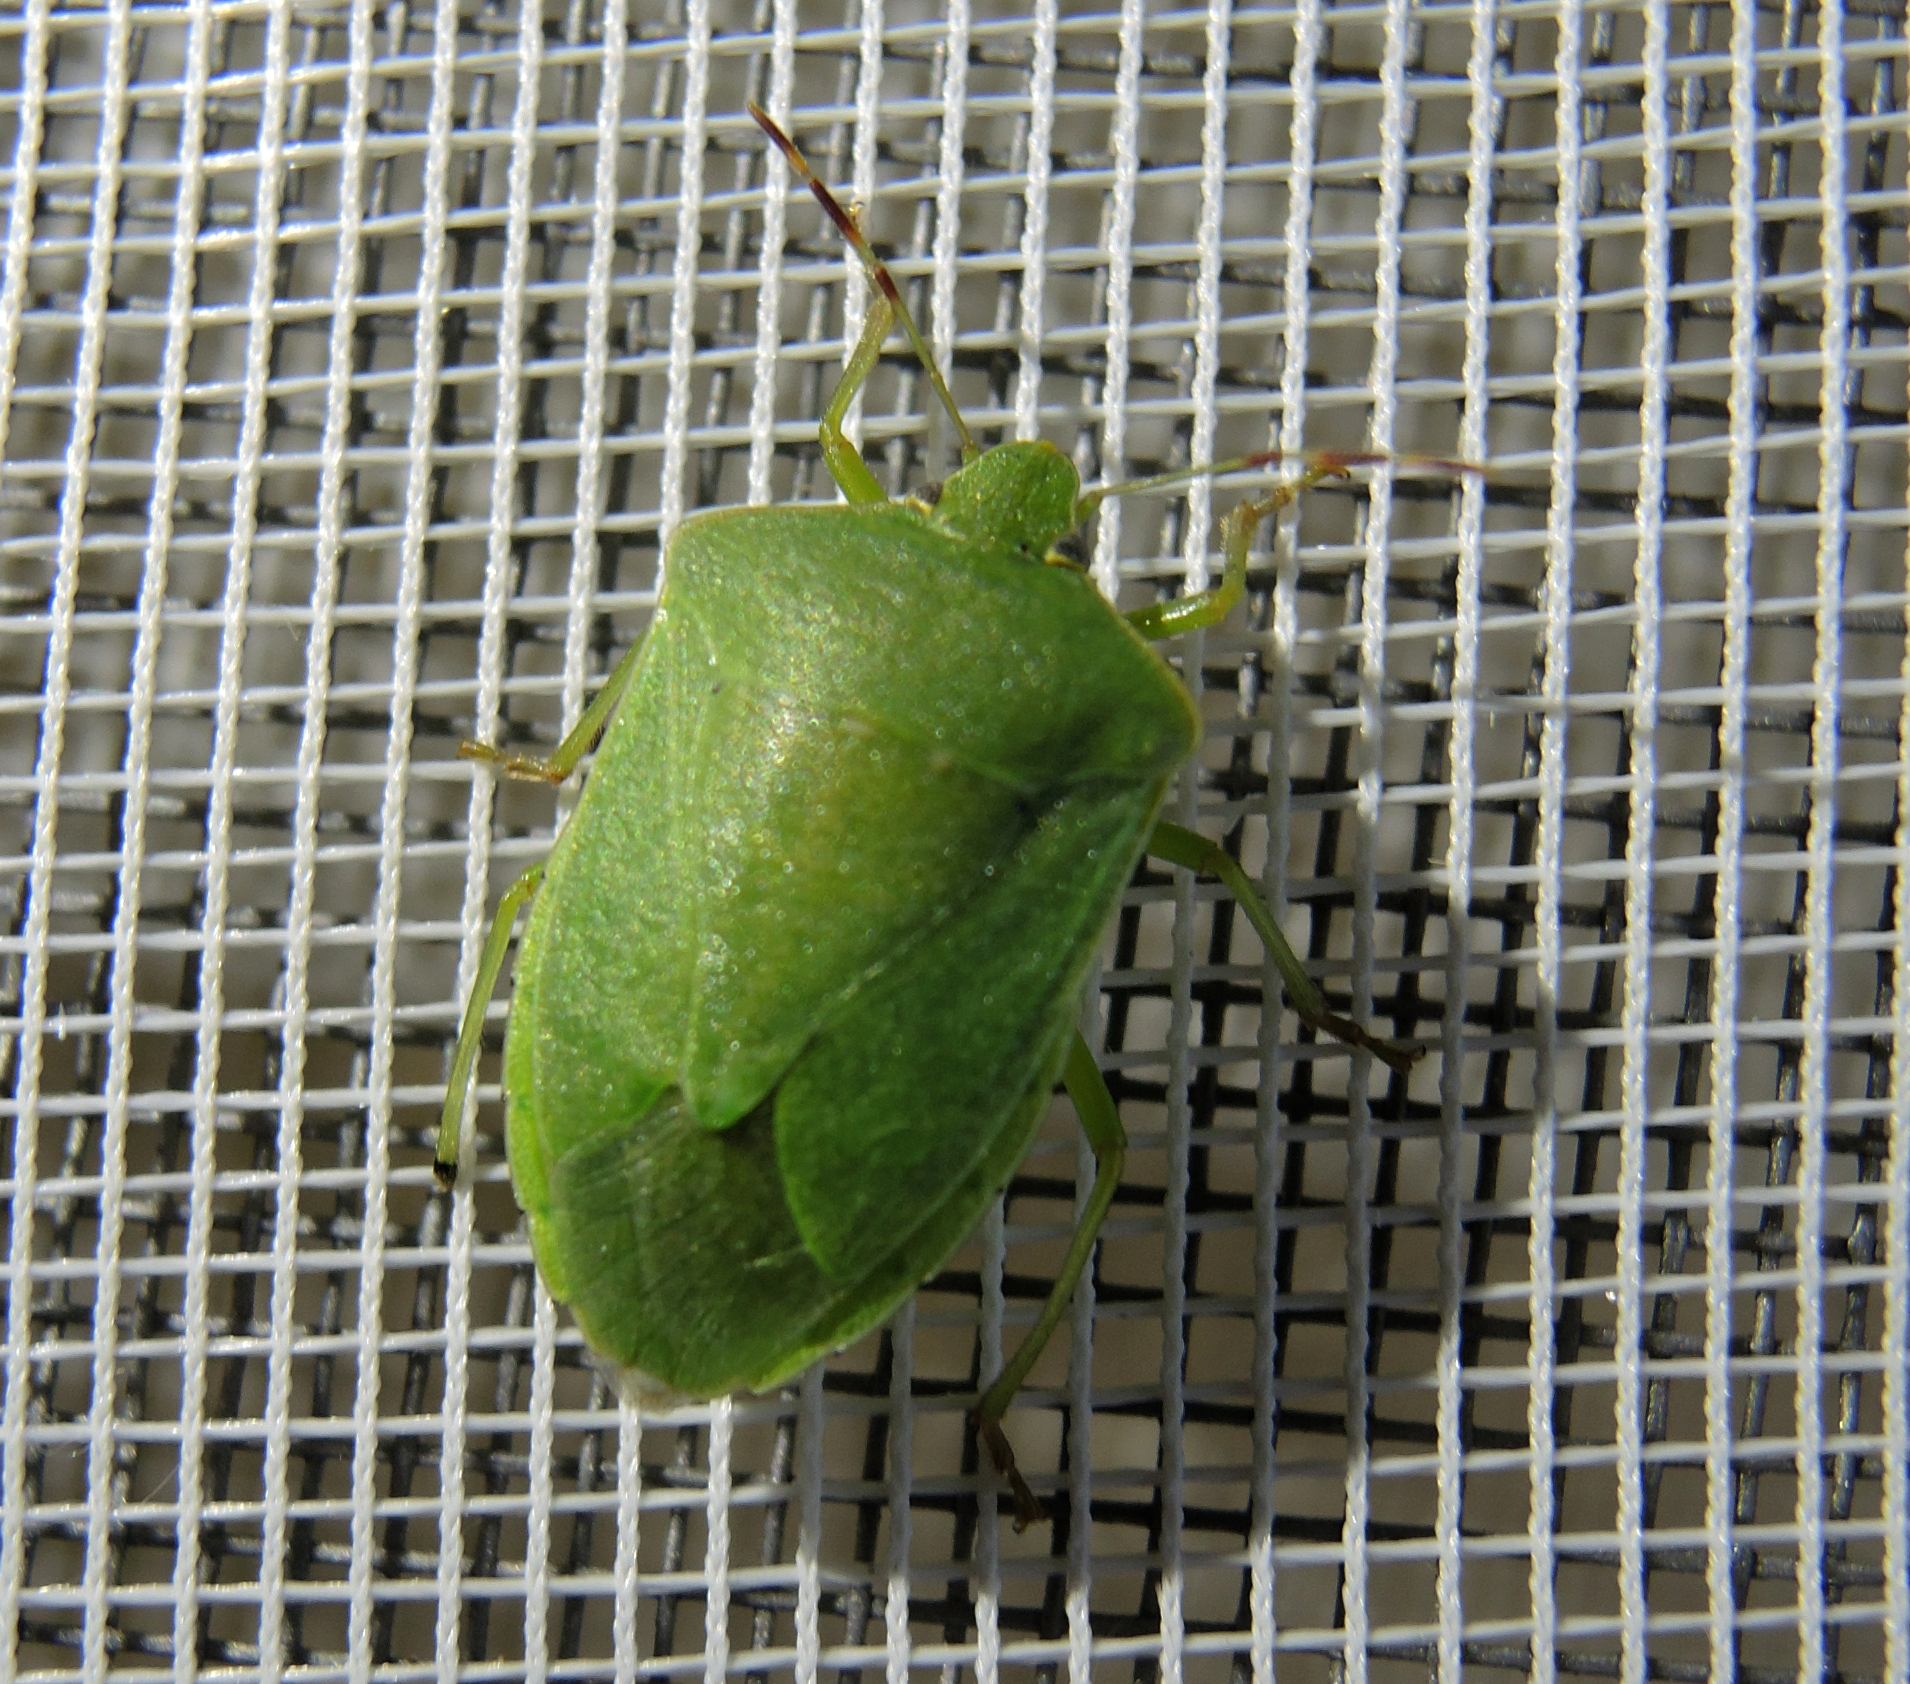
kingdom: Animalia
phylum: Arthropoda
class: Insecta
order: Hemiptera
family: Pentatomidae
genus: Nezara
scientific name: Nezara viridula
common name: Southern green stink bug
